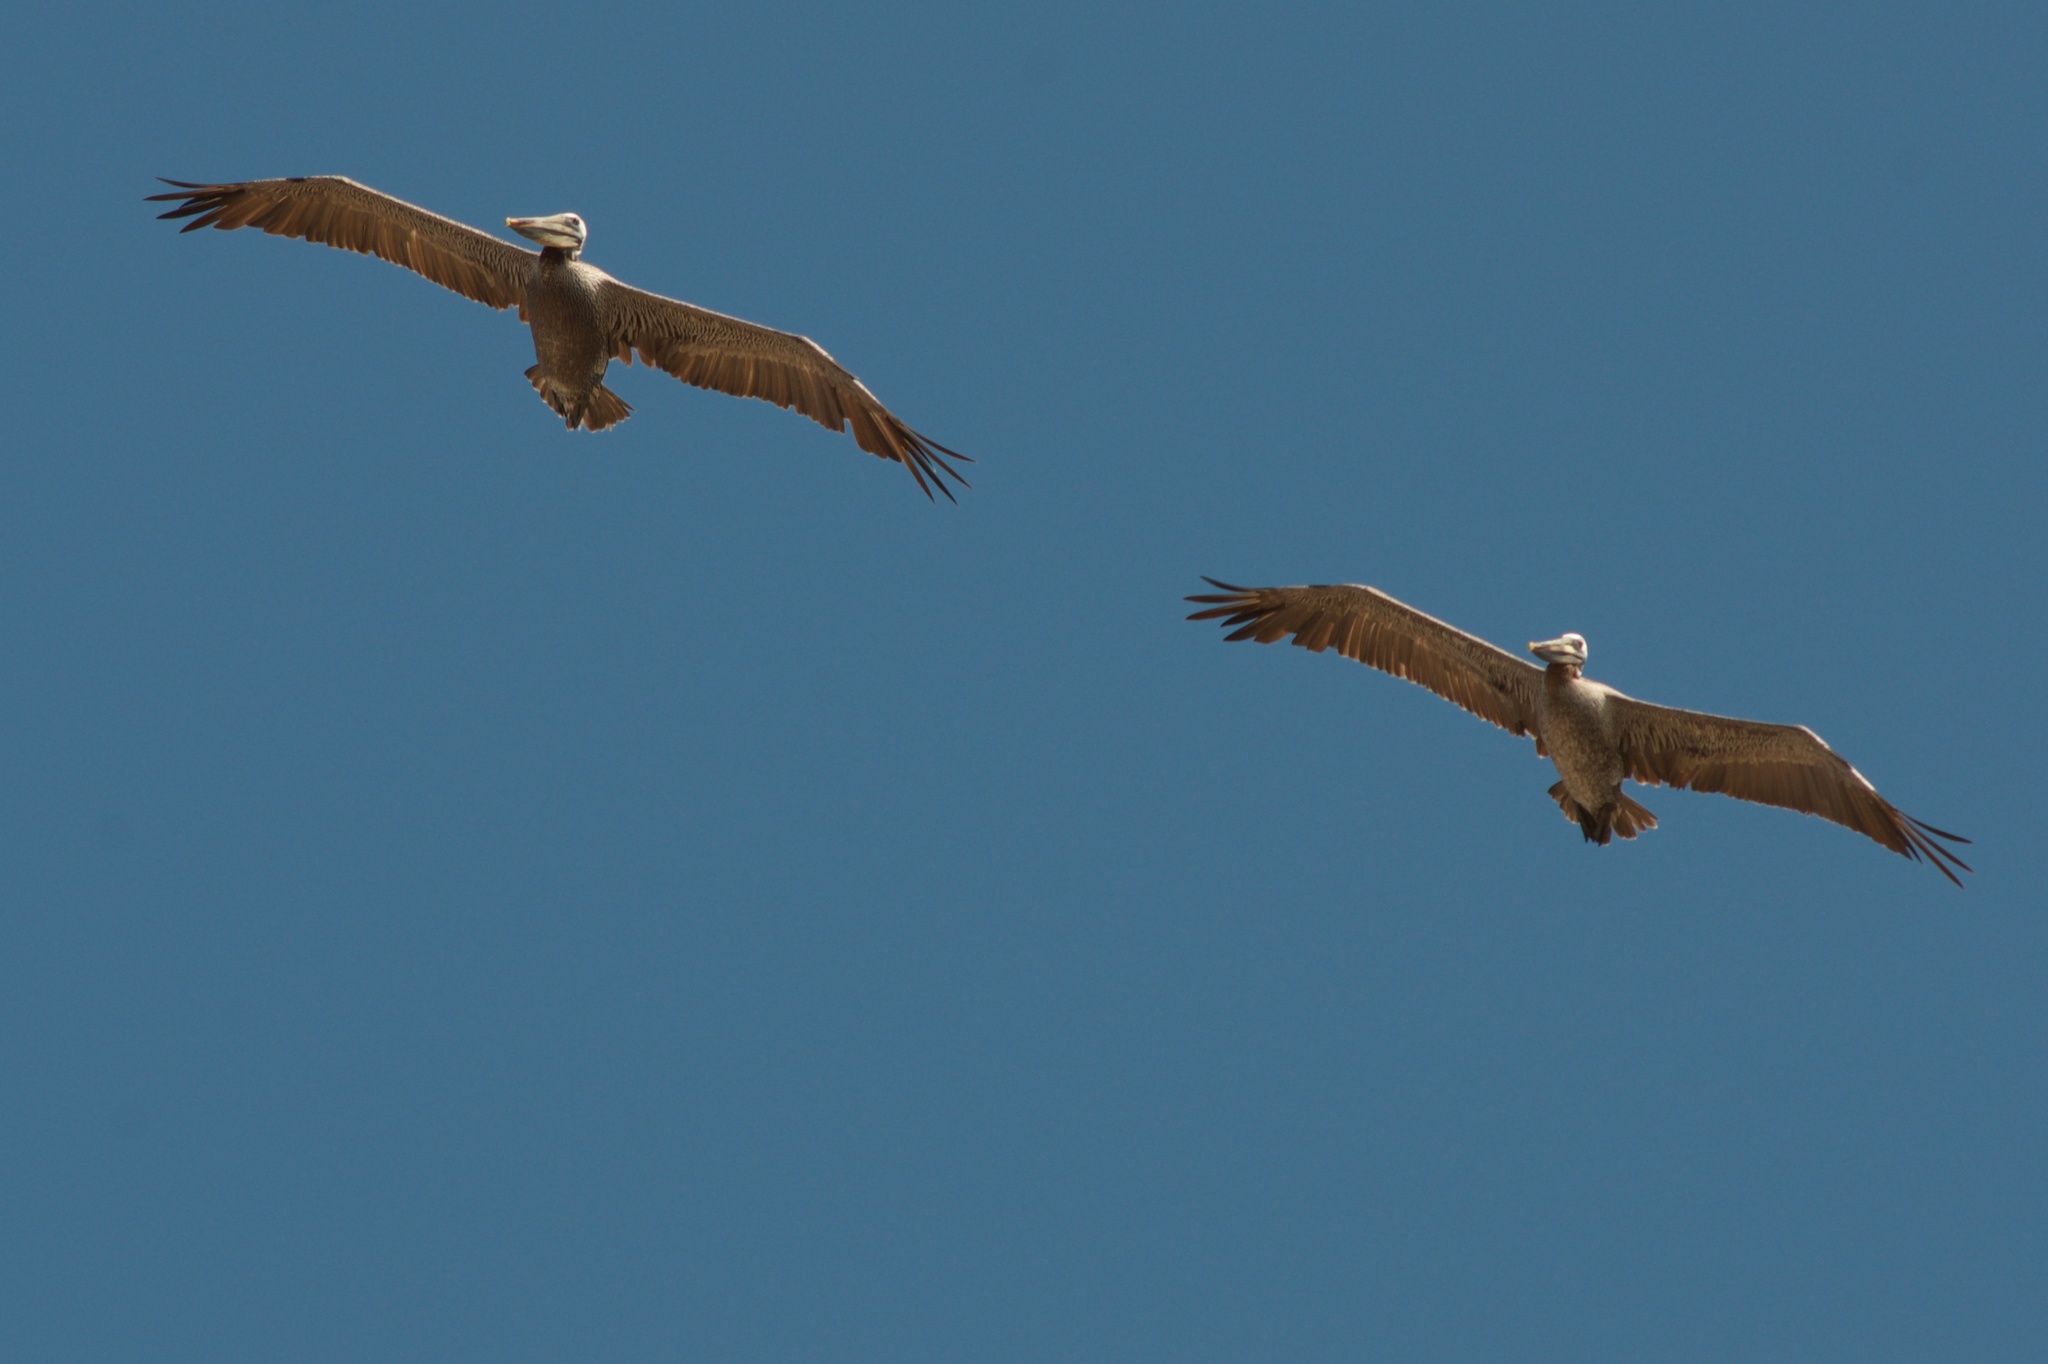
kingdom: Animalia
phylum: Chordata
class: Aves
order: Pelecaniformes
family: Pelecanidae
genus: Pelecanus
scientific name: Pelecanus occidentalis
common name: Brown pelican
